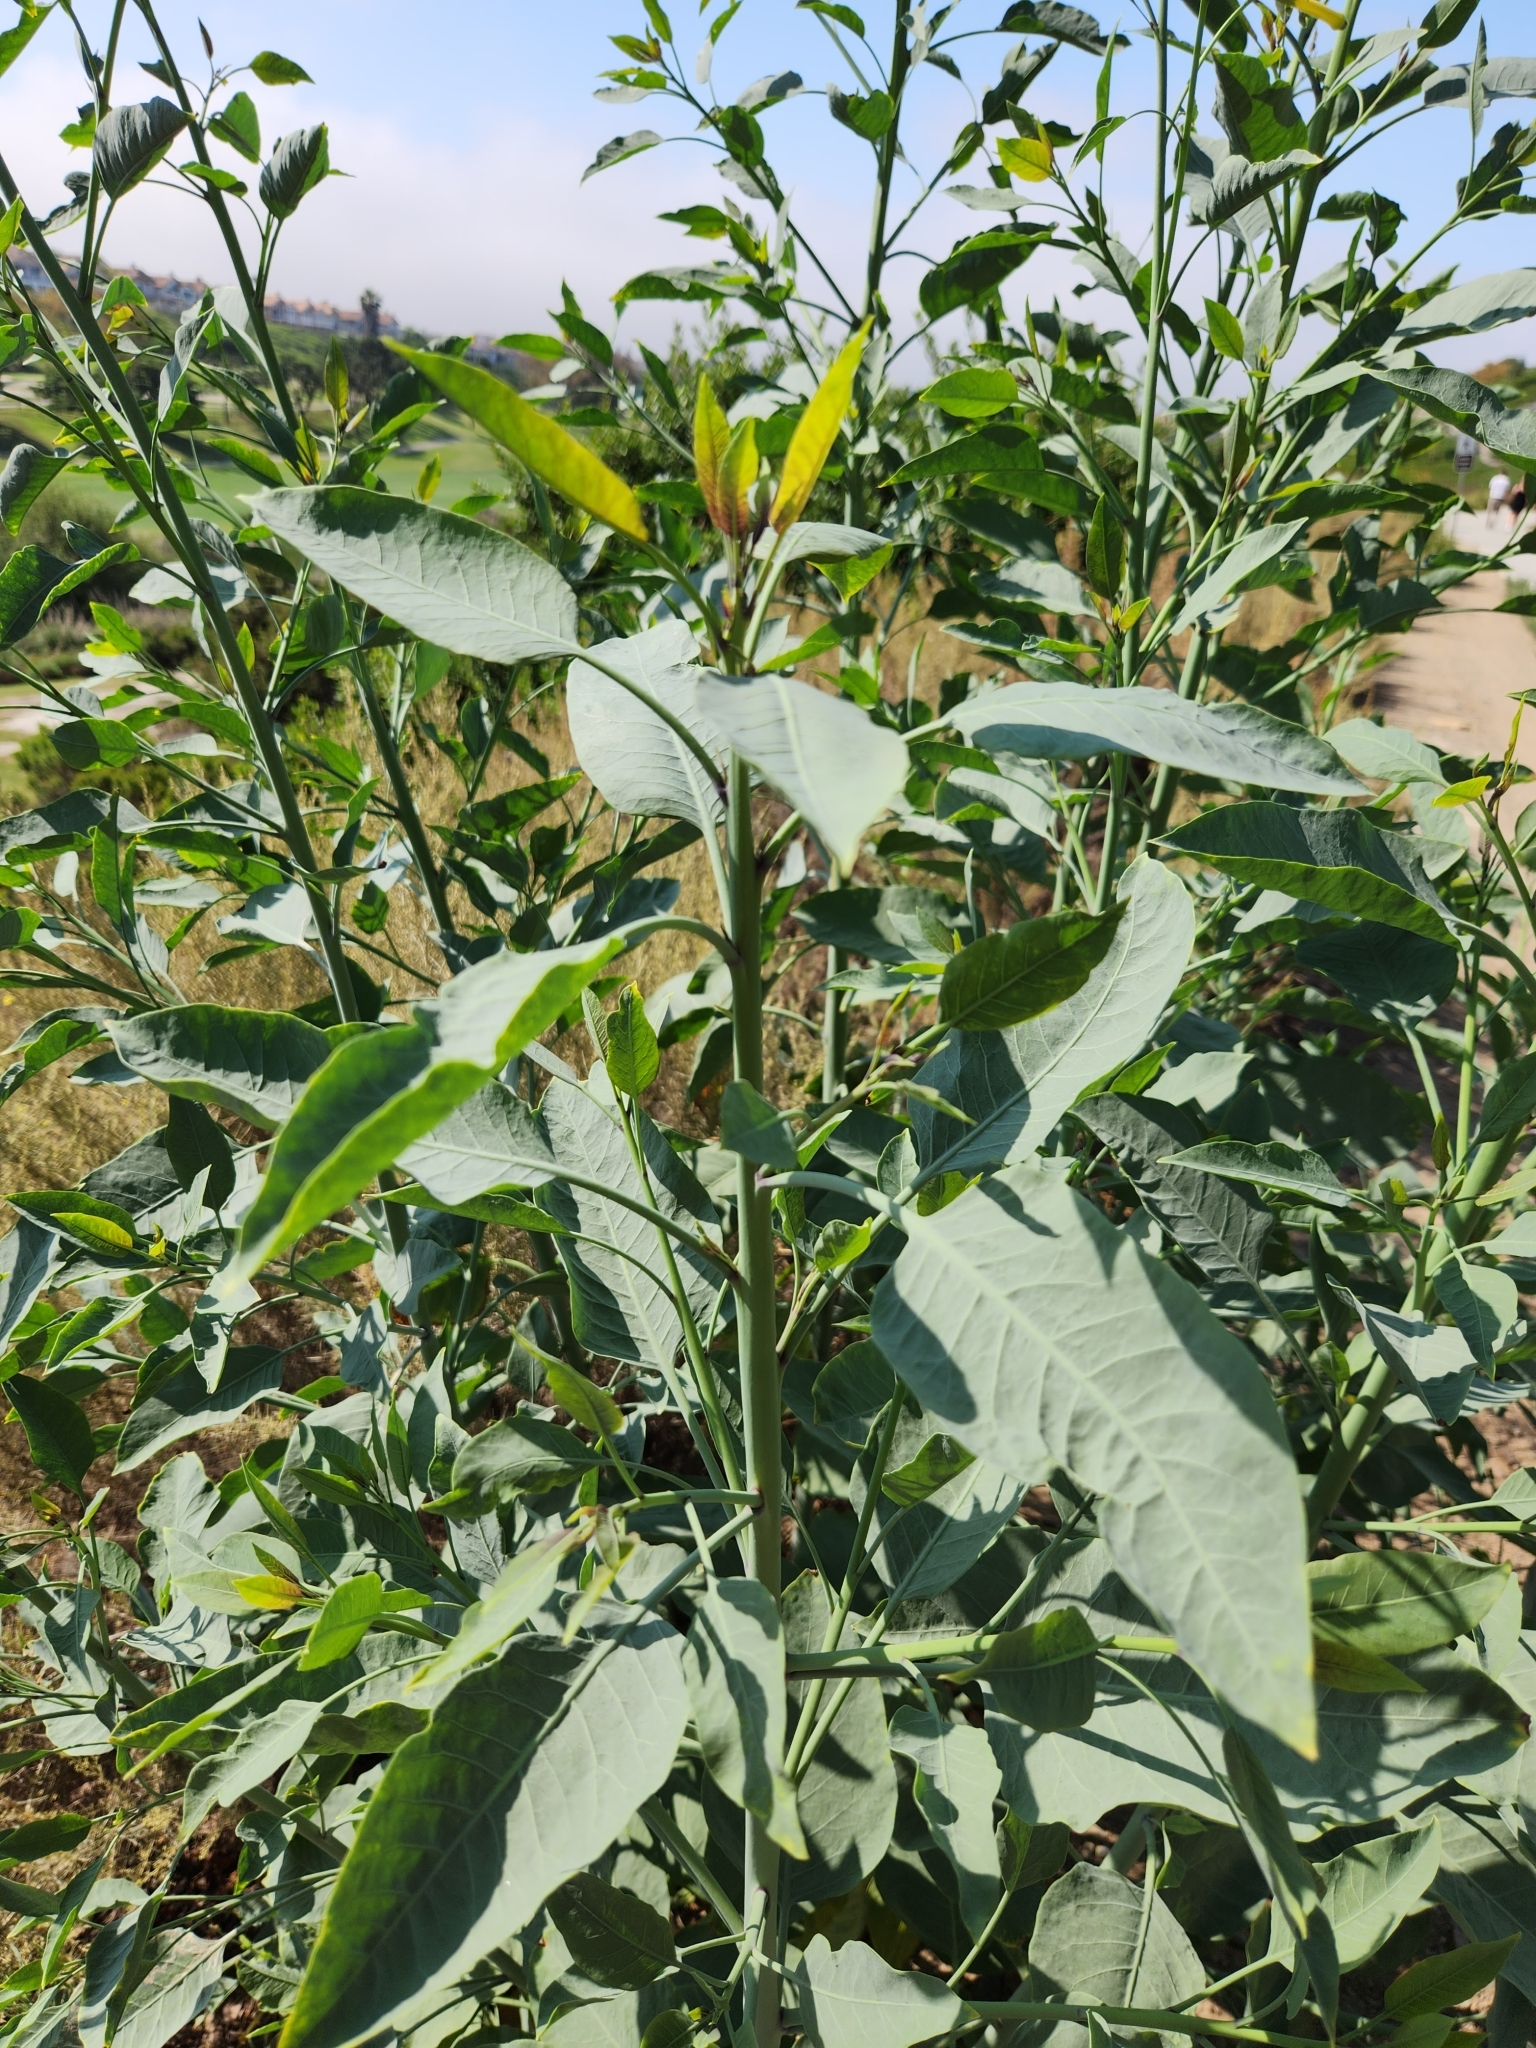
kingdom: Plantae
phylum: Tracheophyta
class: Magnoliopsida
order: Solanales
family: Solanaceae
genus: Nicotiana
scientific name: Nicotiana glauca
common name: Tree tobacco
